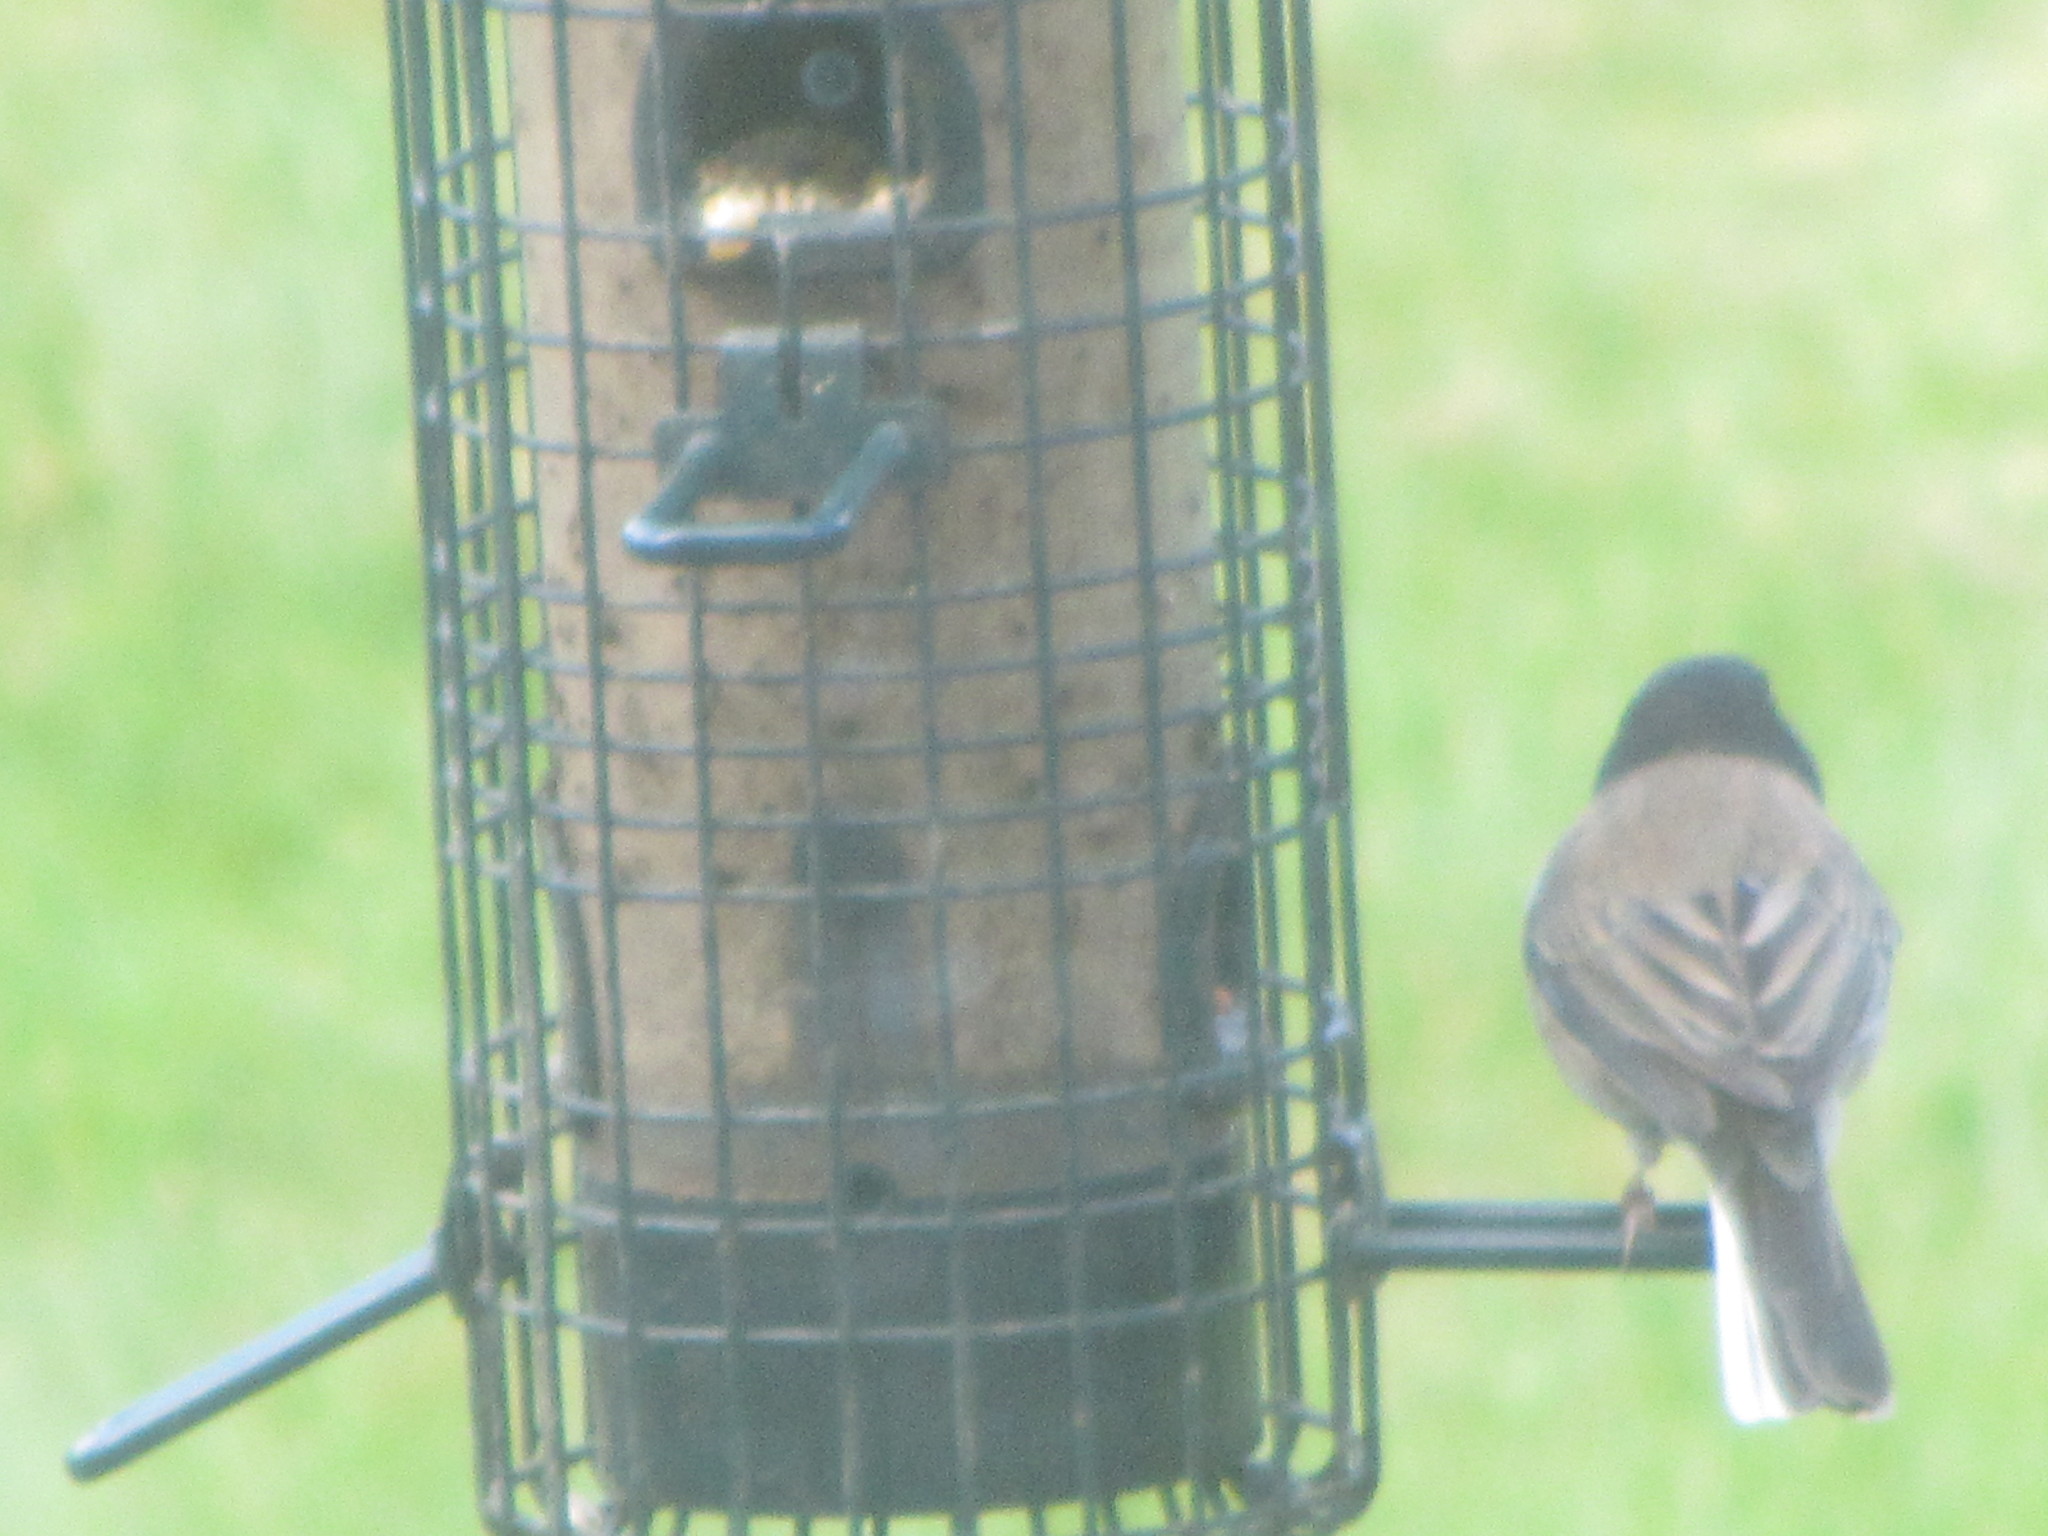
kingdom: Animalia
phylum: Chordata
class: Aves
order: Passeriformes
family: Passerellidae
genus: Junco
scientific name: Junco hyemalis
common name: Dark-eyed junco
